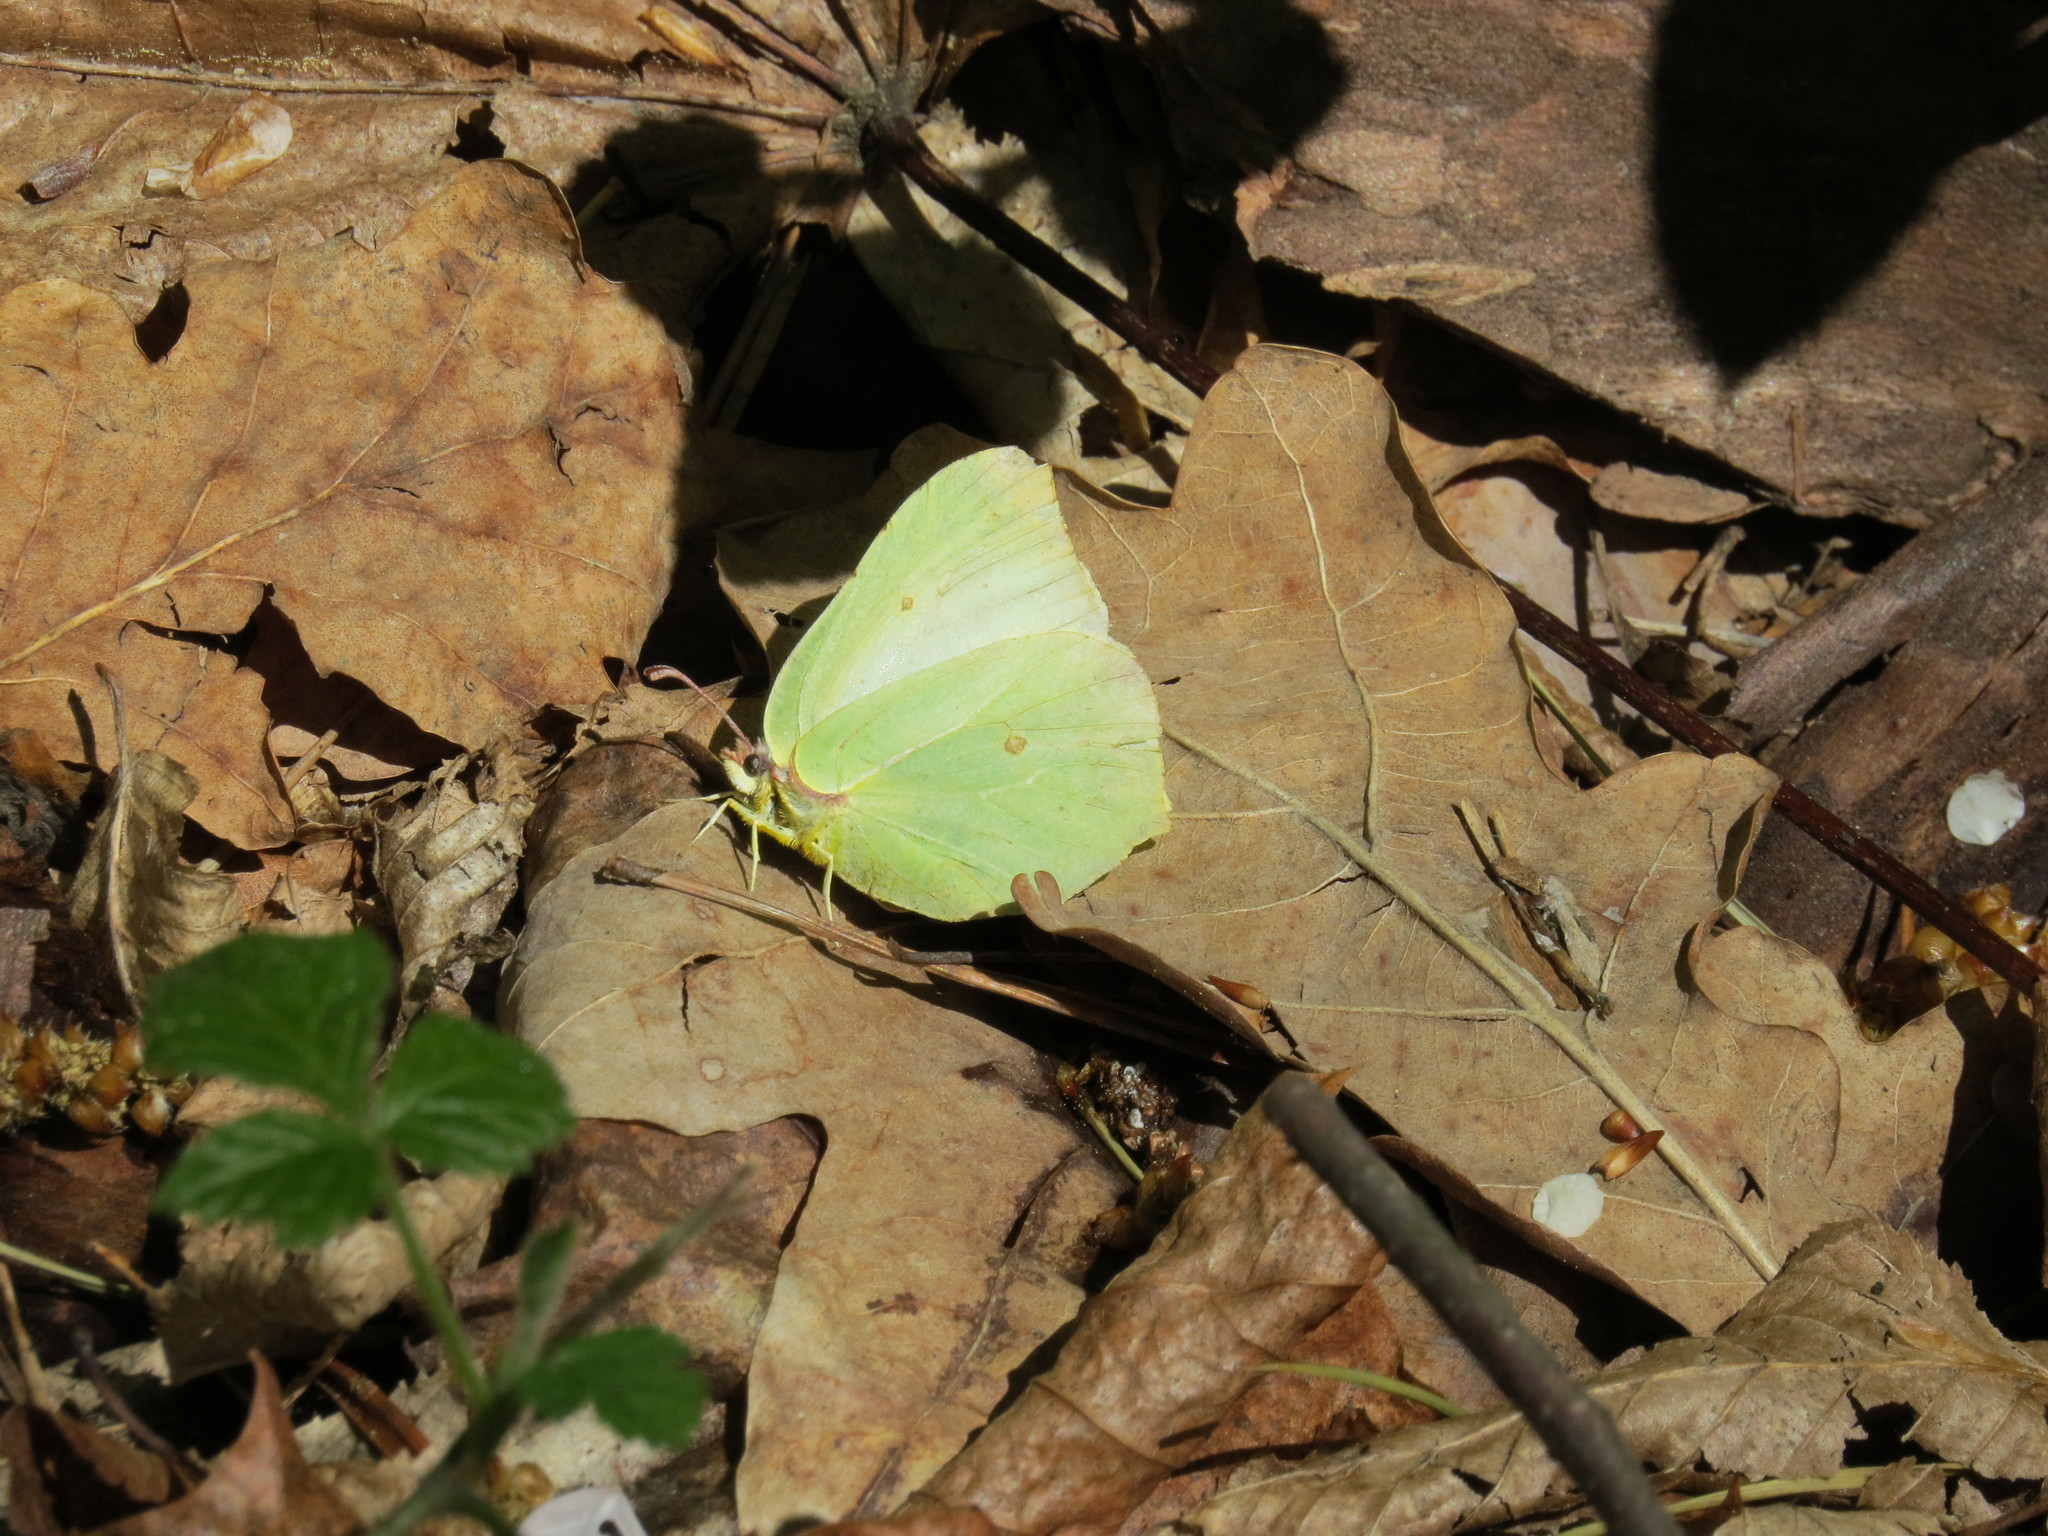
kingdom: Animalia
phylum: Arthropoda
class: Insecta
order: Lepidoptera
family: Pieridae
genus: Gonepteryx
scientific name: Gonepteryx rhamni
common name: Brimstone
